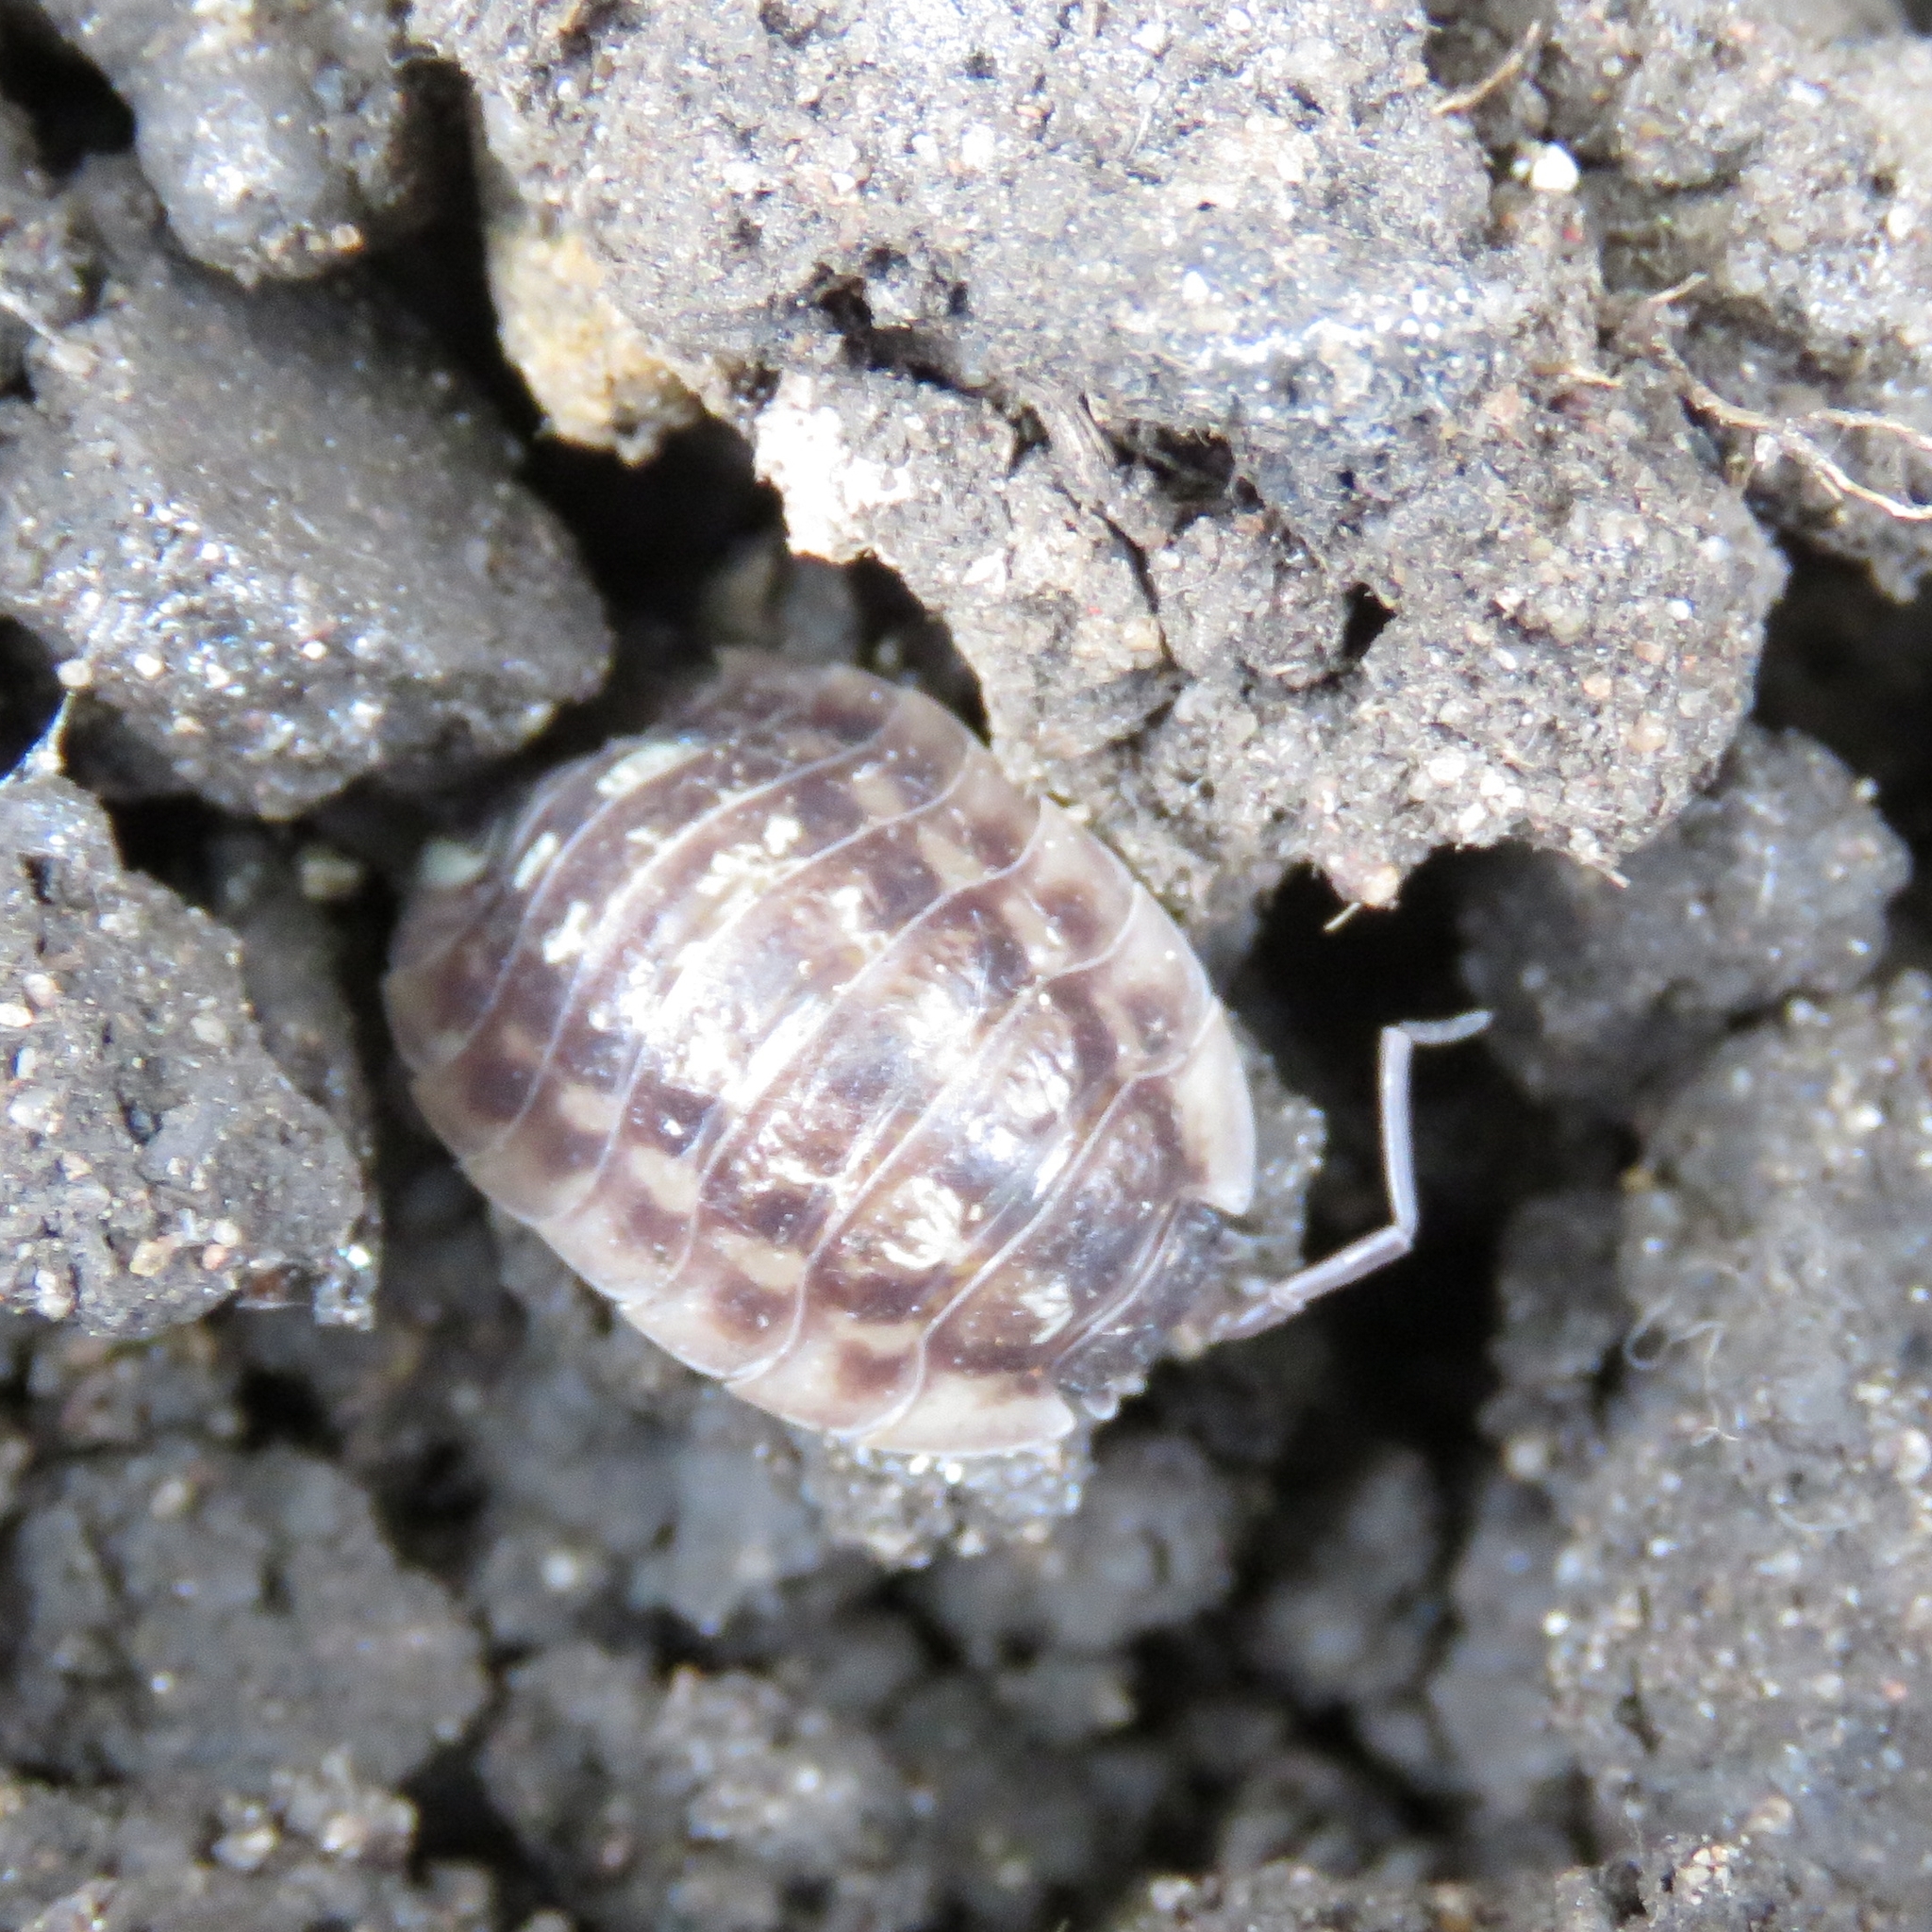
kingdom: Animalia
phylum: Arthropoda
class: Malacostraca
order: Isopoda
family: Oniscidae
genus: Oniscus
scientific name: Oniscus asellus
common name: Common shiny woodlouse
